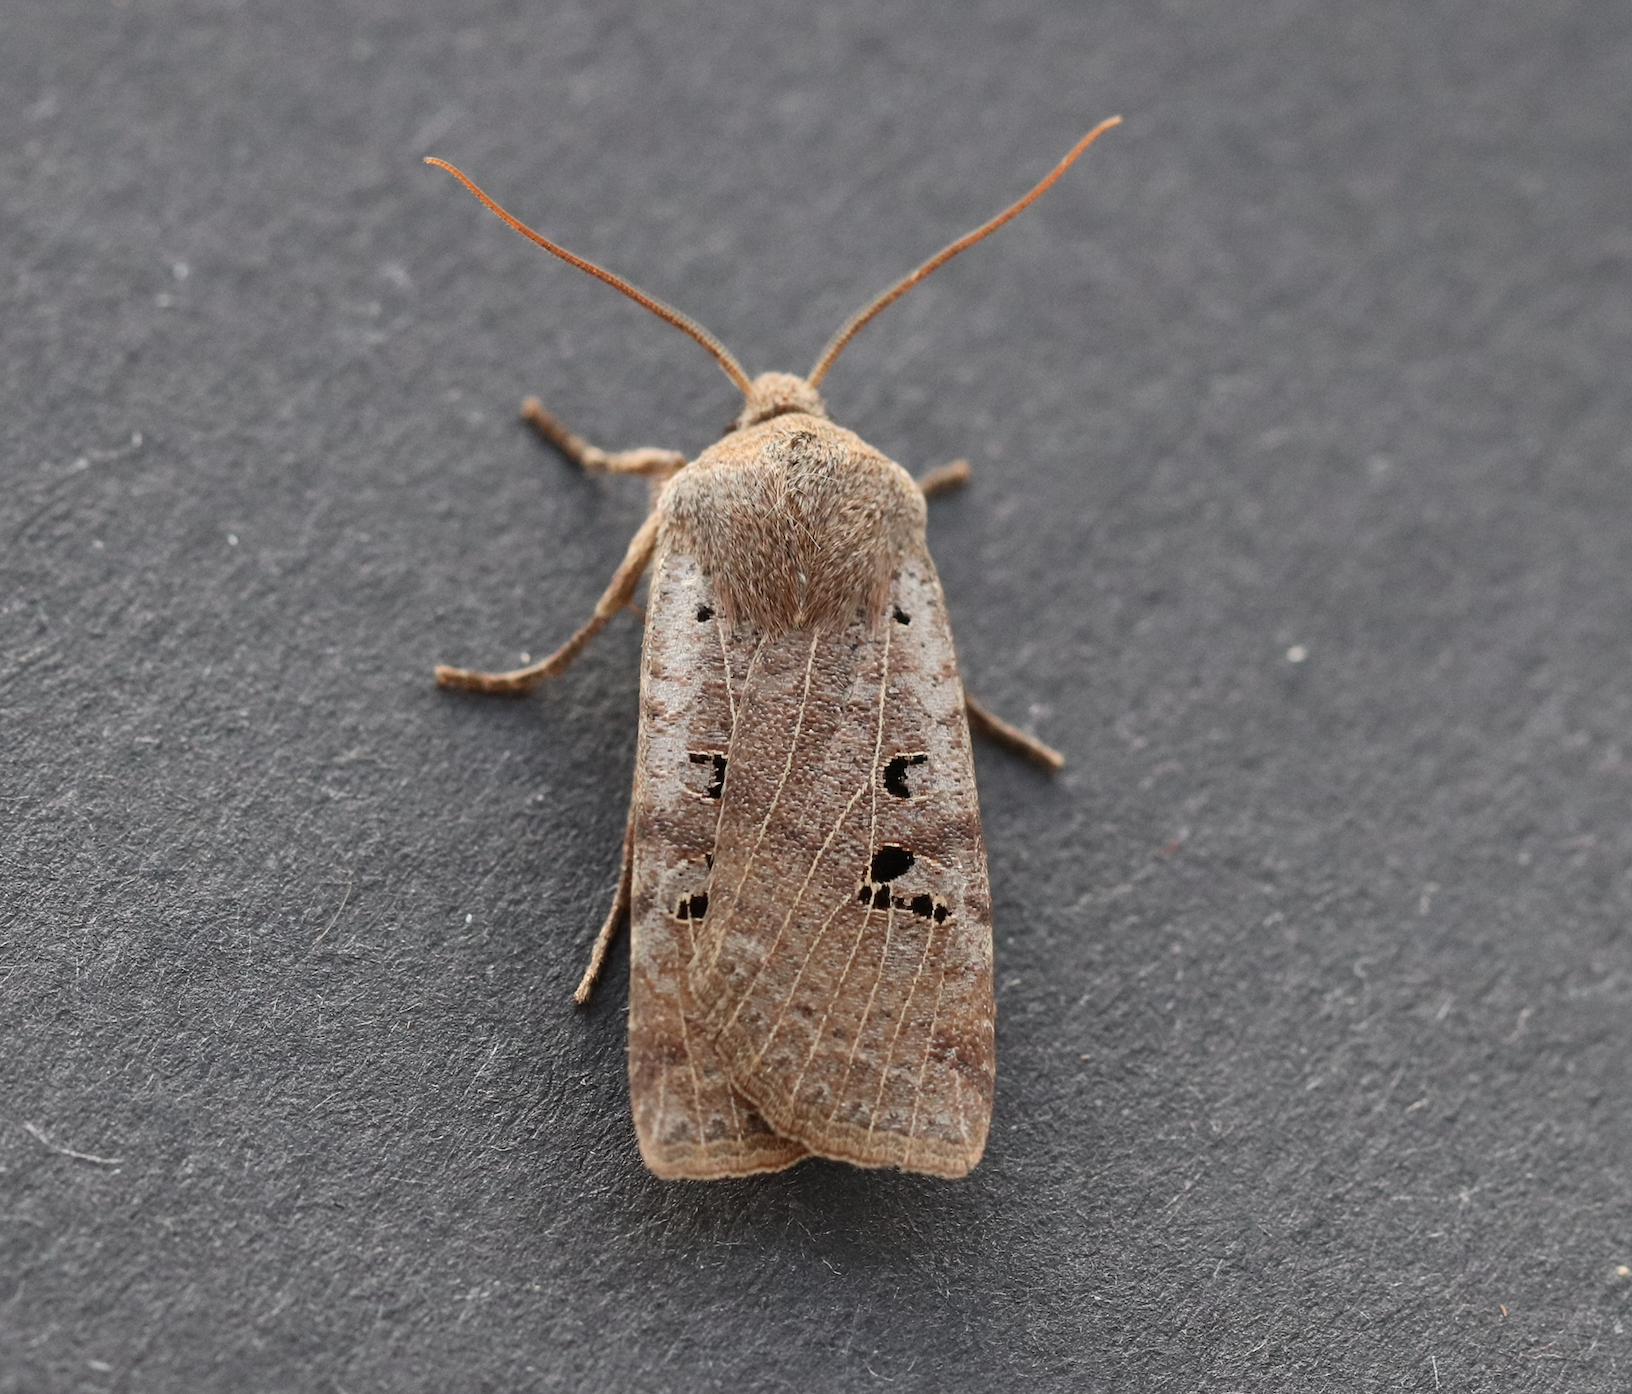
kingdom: Animalia
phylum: Arthropoda
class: Insecta
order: Lepidoptera
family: Noctuidae
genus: Conistra
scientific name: Conistra rubiginosa
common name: Black-spotted chestnut
